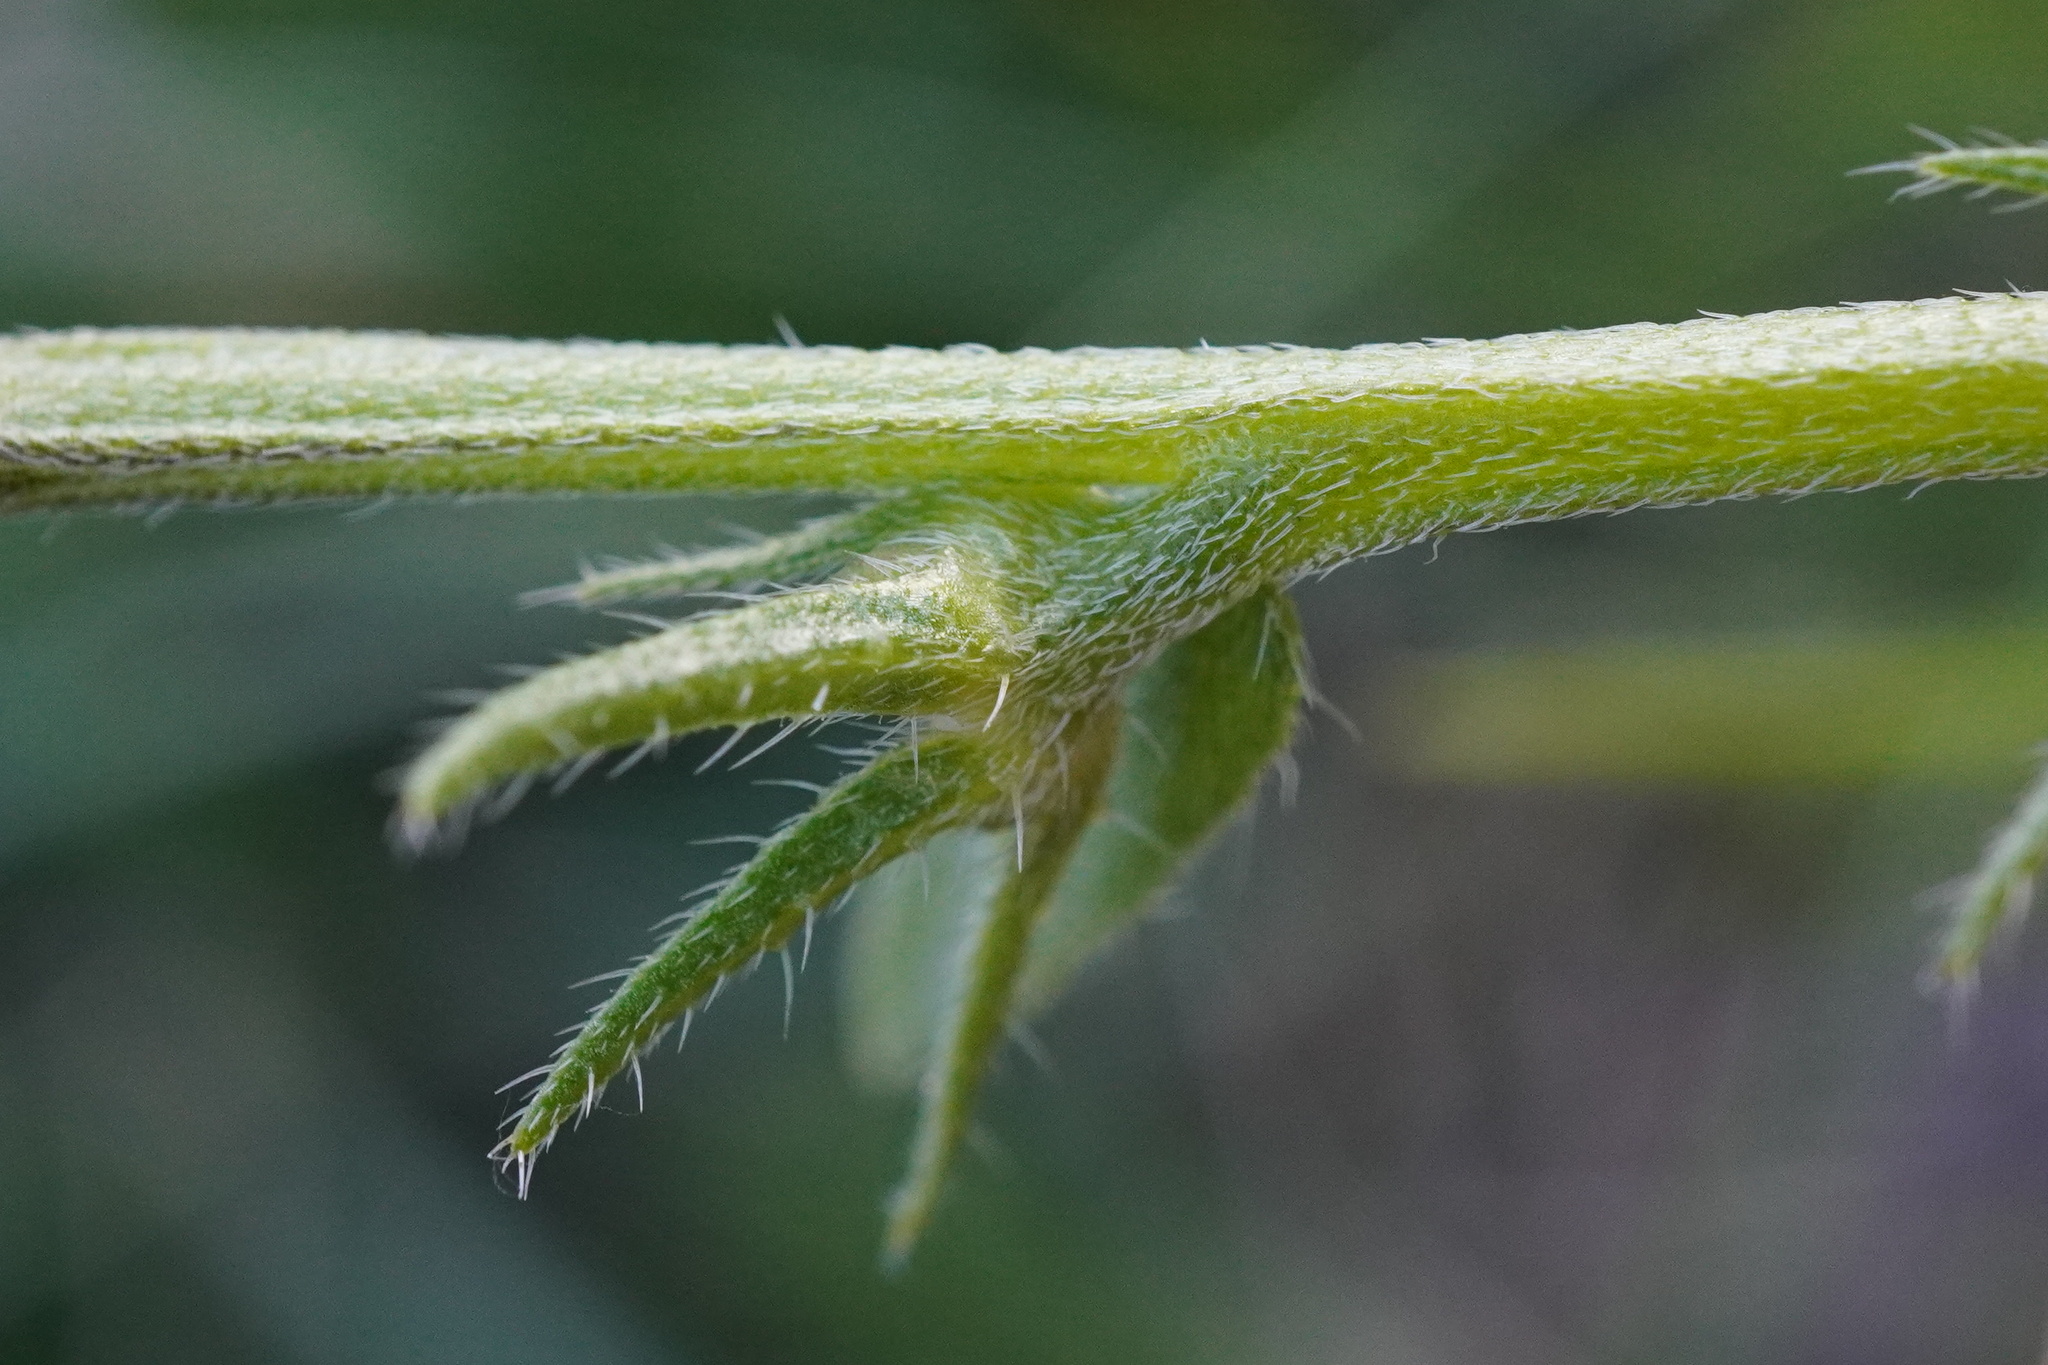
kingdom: Plantae
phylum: Tracheophyta
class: Magnoliopsida
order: Boraginales
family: Boraginaceae
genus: Buglossoides
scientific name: Buglossoides incrassata
